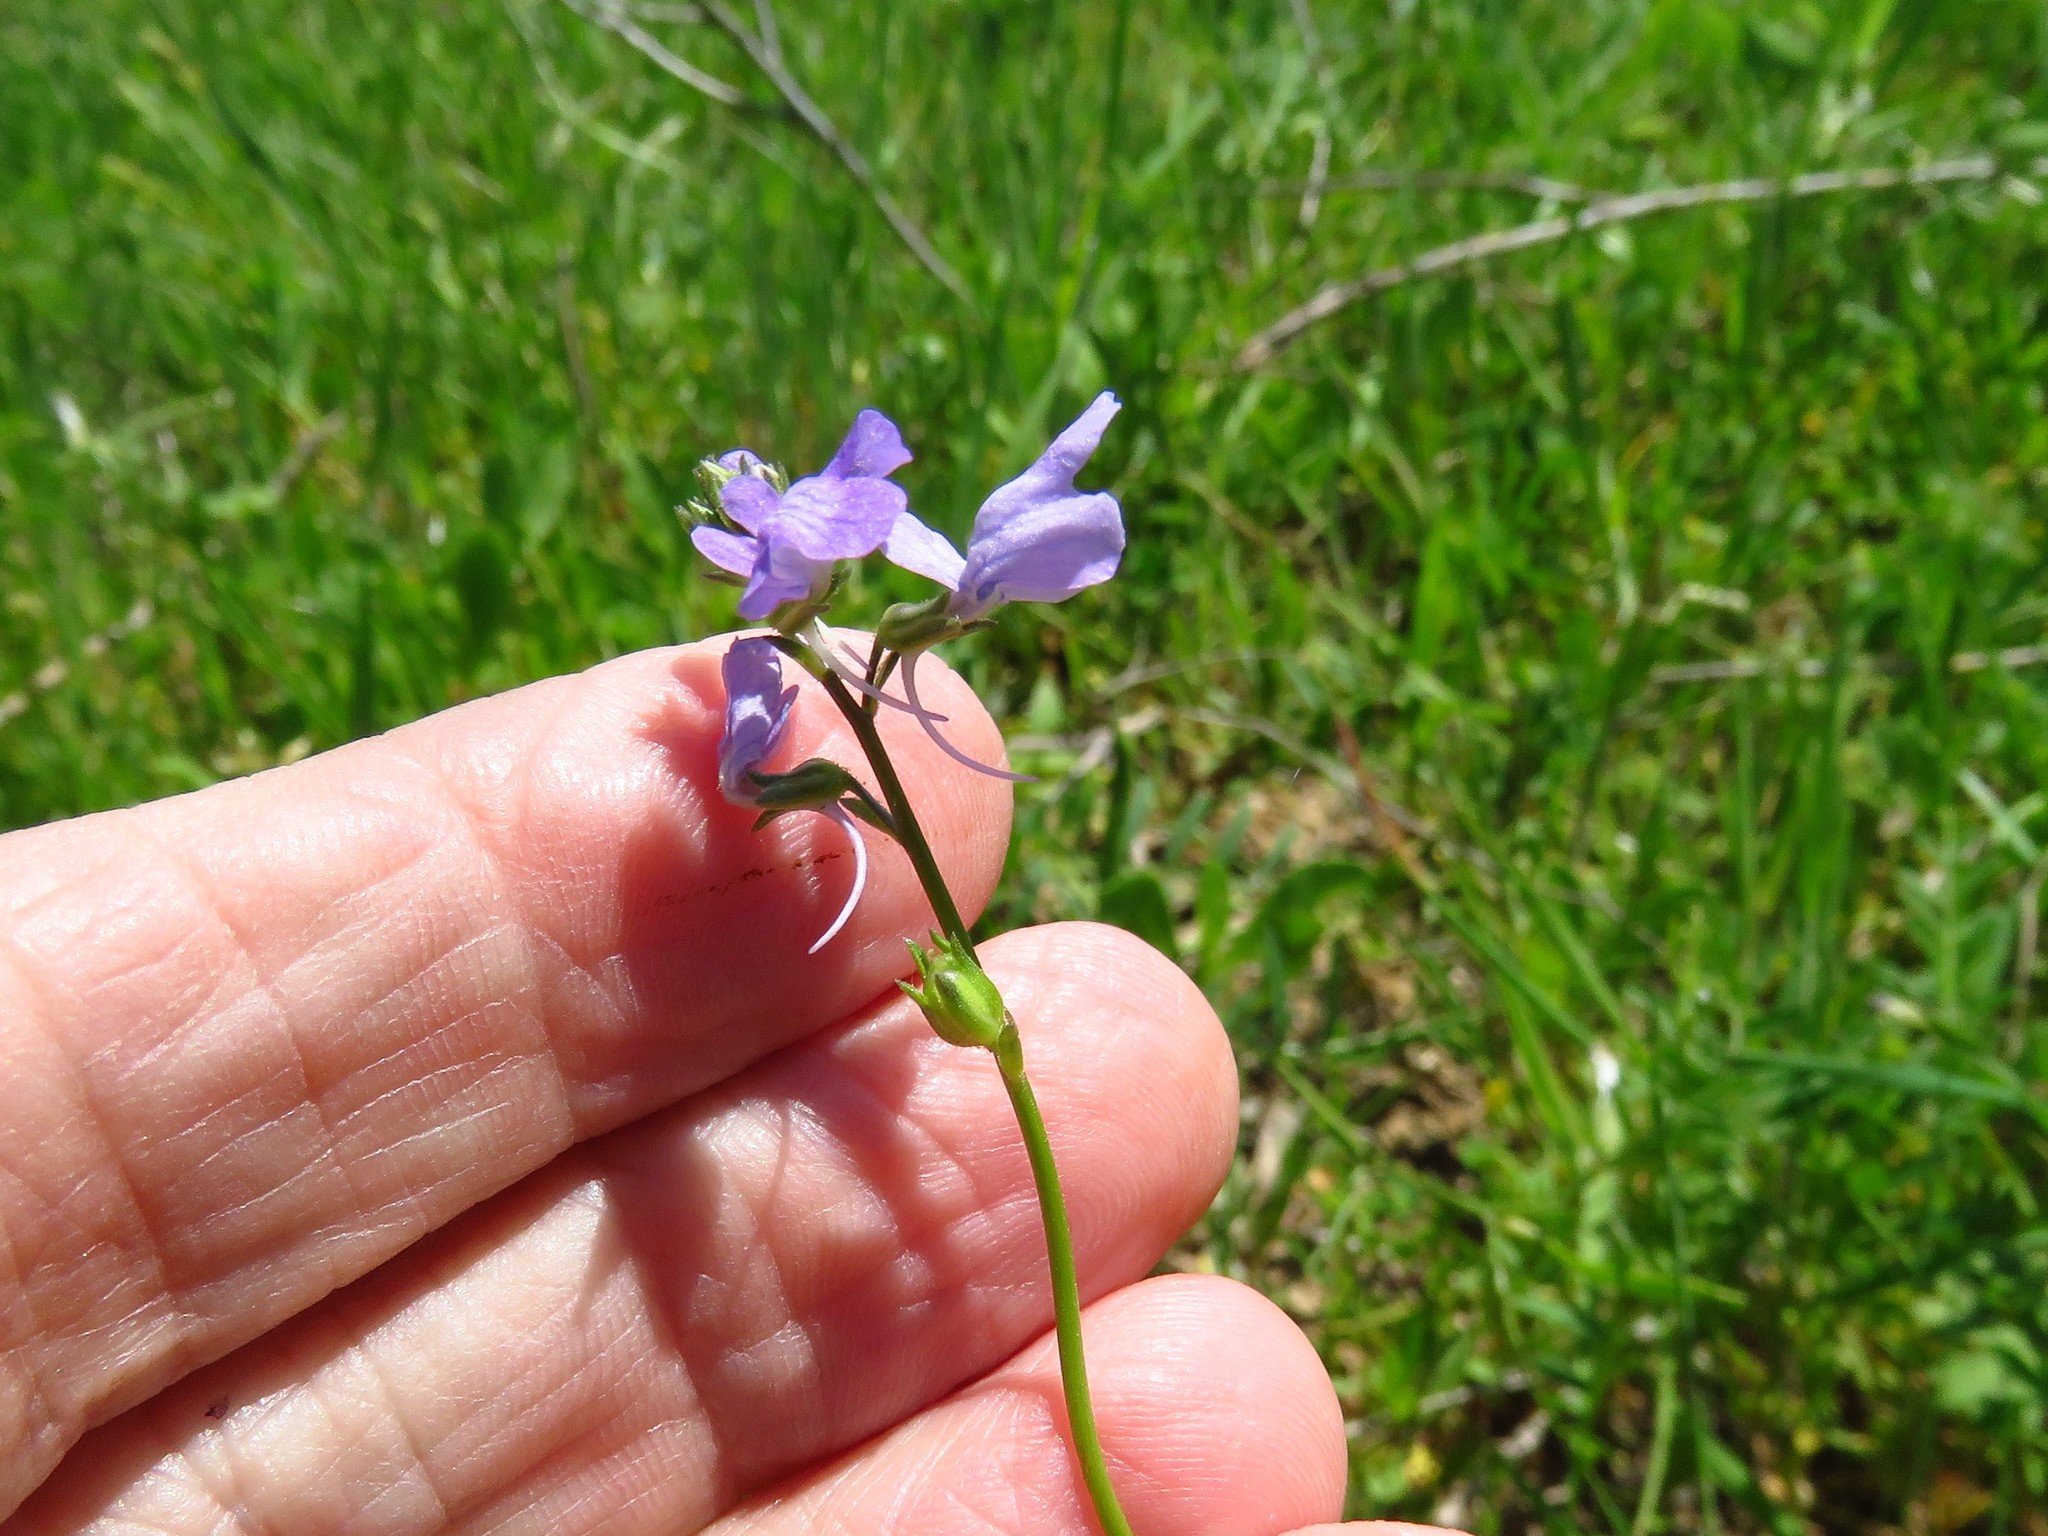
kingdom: Plantae
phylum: Tracheophyta
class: Magnoliopsida
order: Lamiales
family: Plantaginaceae
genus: Nuttallanthus
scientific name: Nuttallanthus texanus
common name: Texas toadflax
